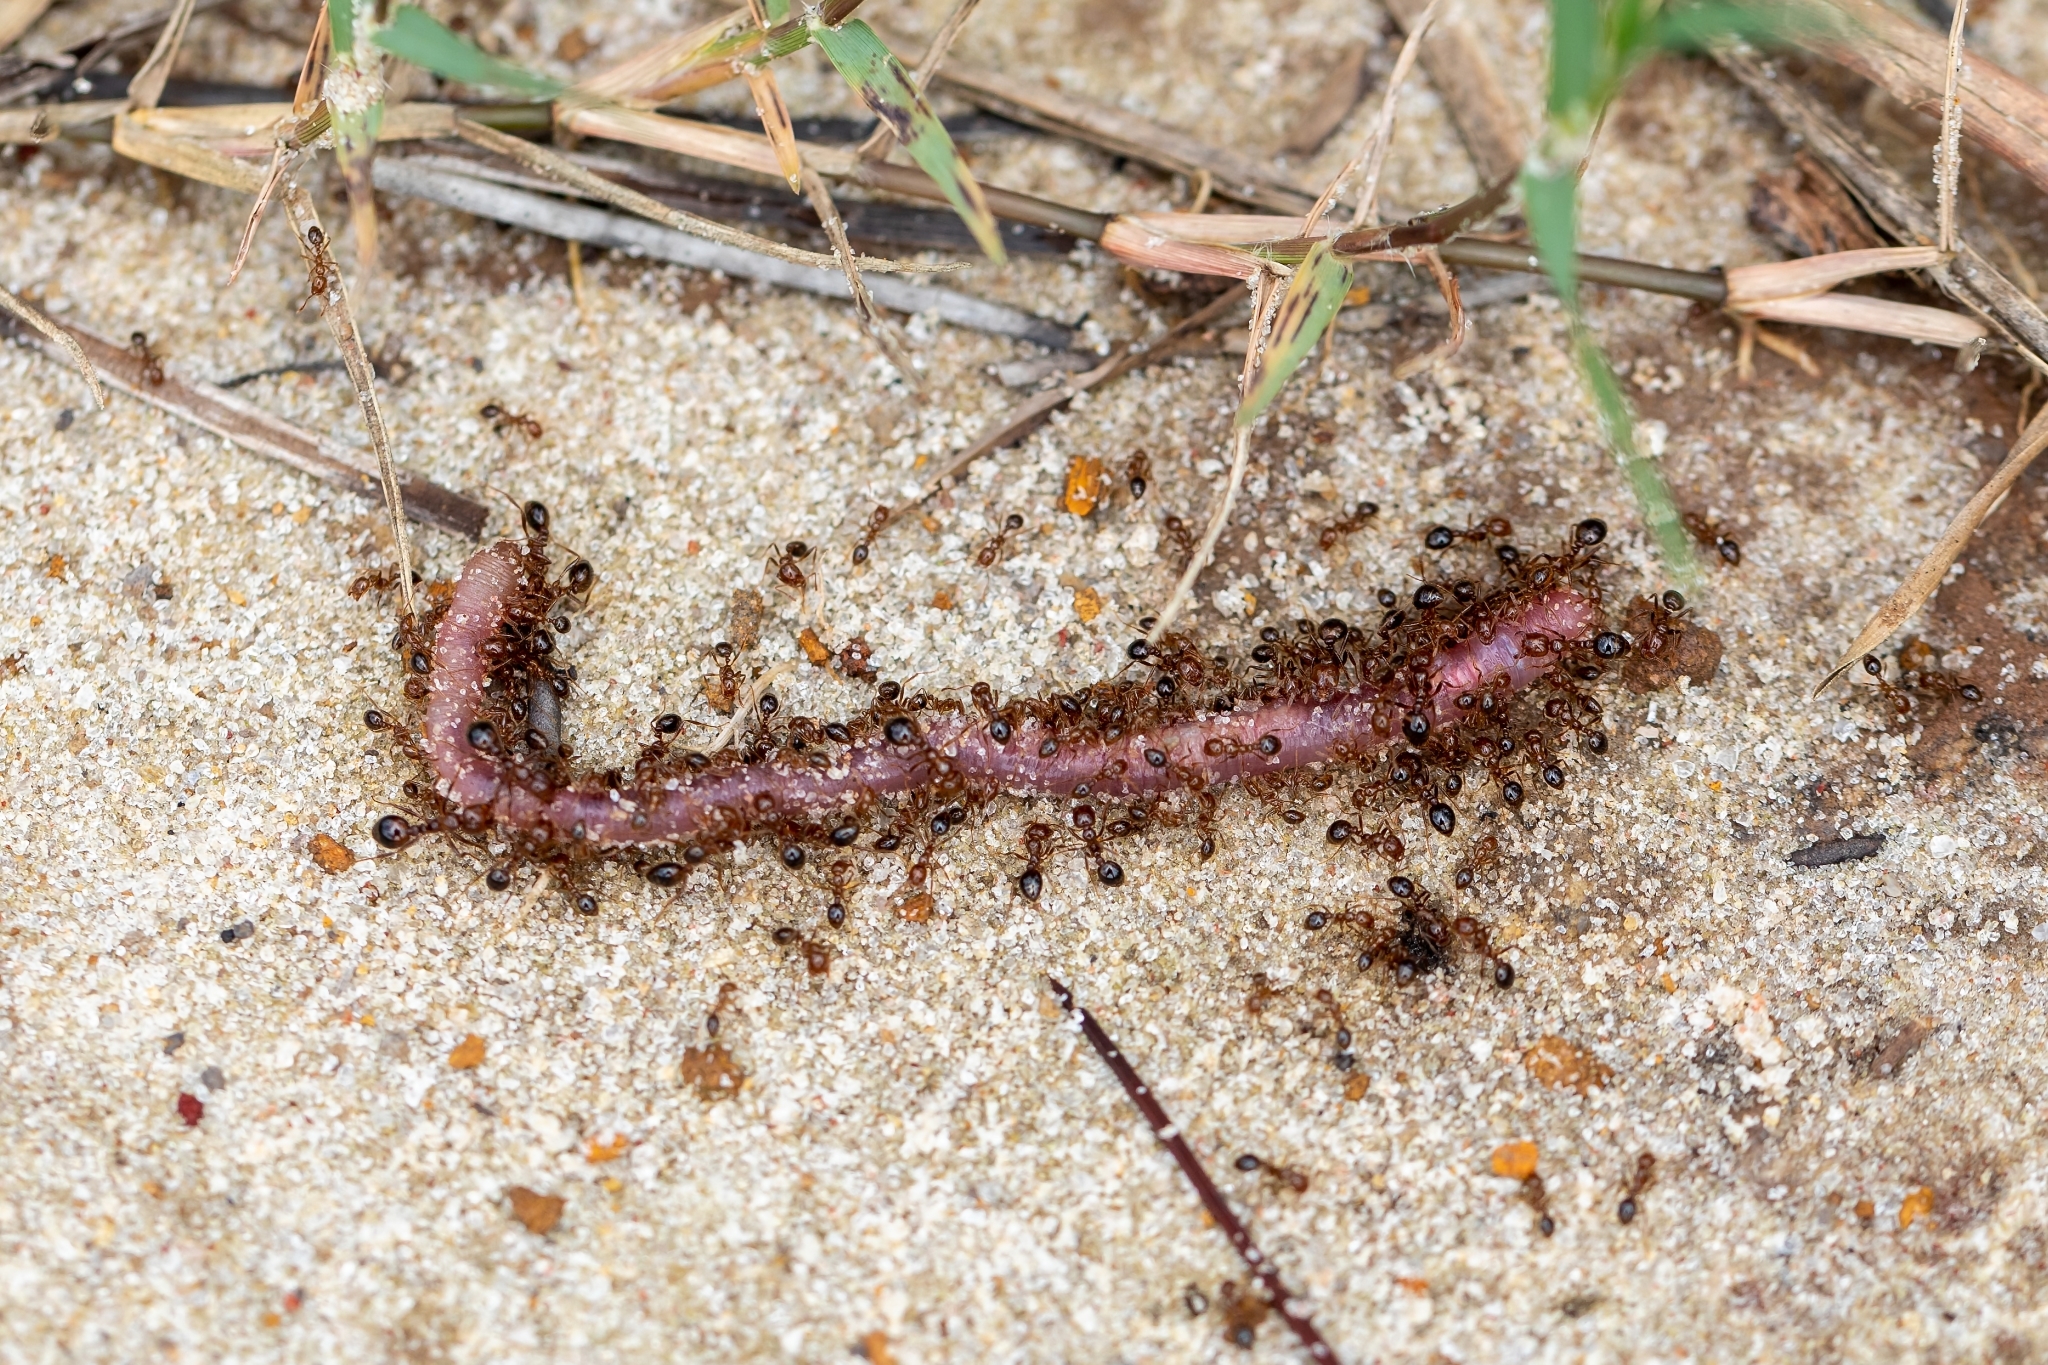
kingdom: Animalia
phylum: Arthropoda
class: Insecta
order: Hymenoptera
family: Formicidae
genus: Solenopsis
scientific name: Solenopsis invicta
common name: Red imported fire ant
